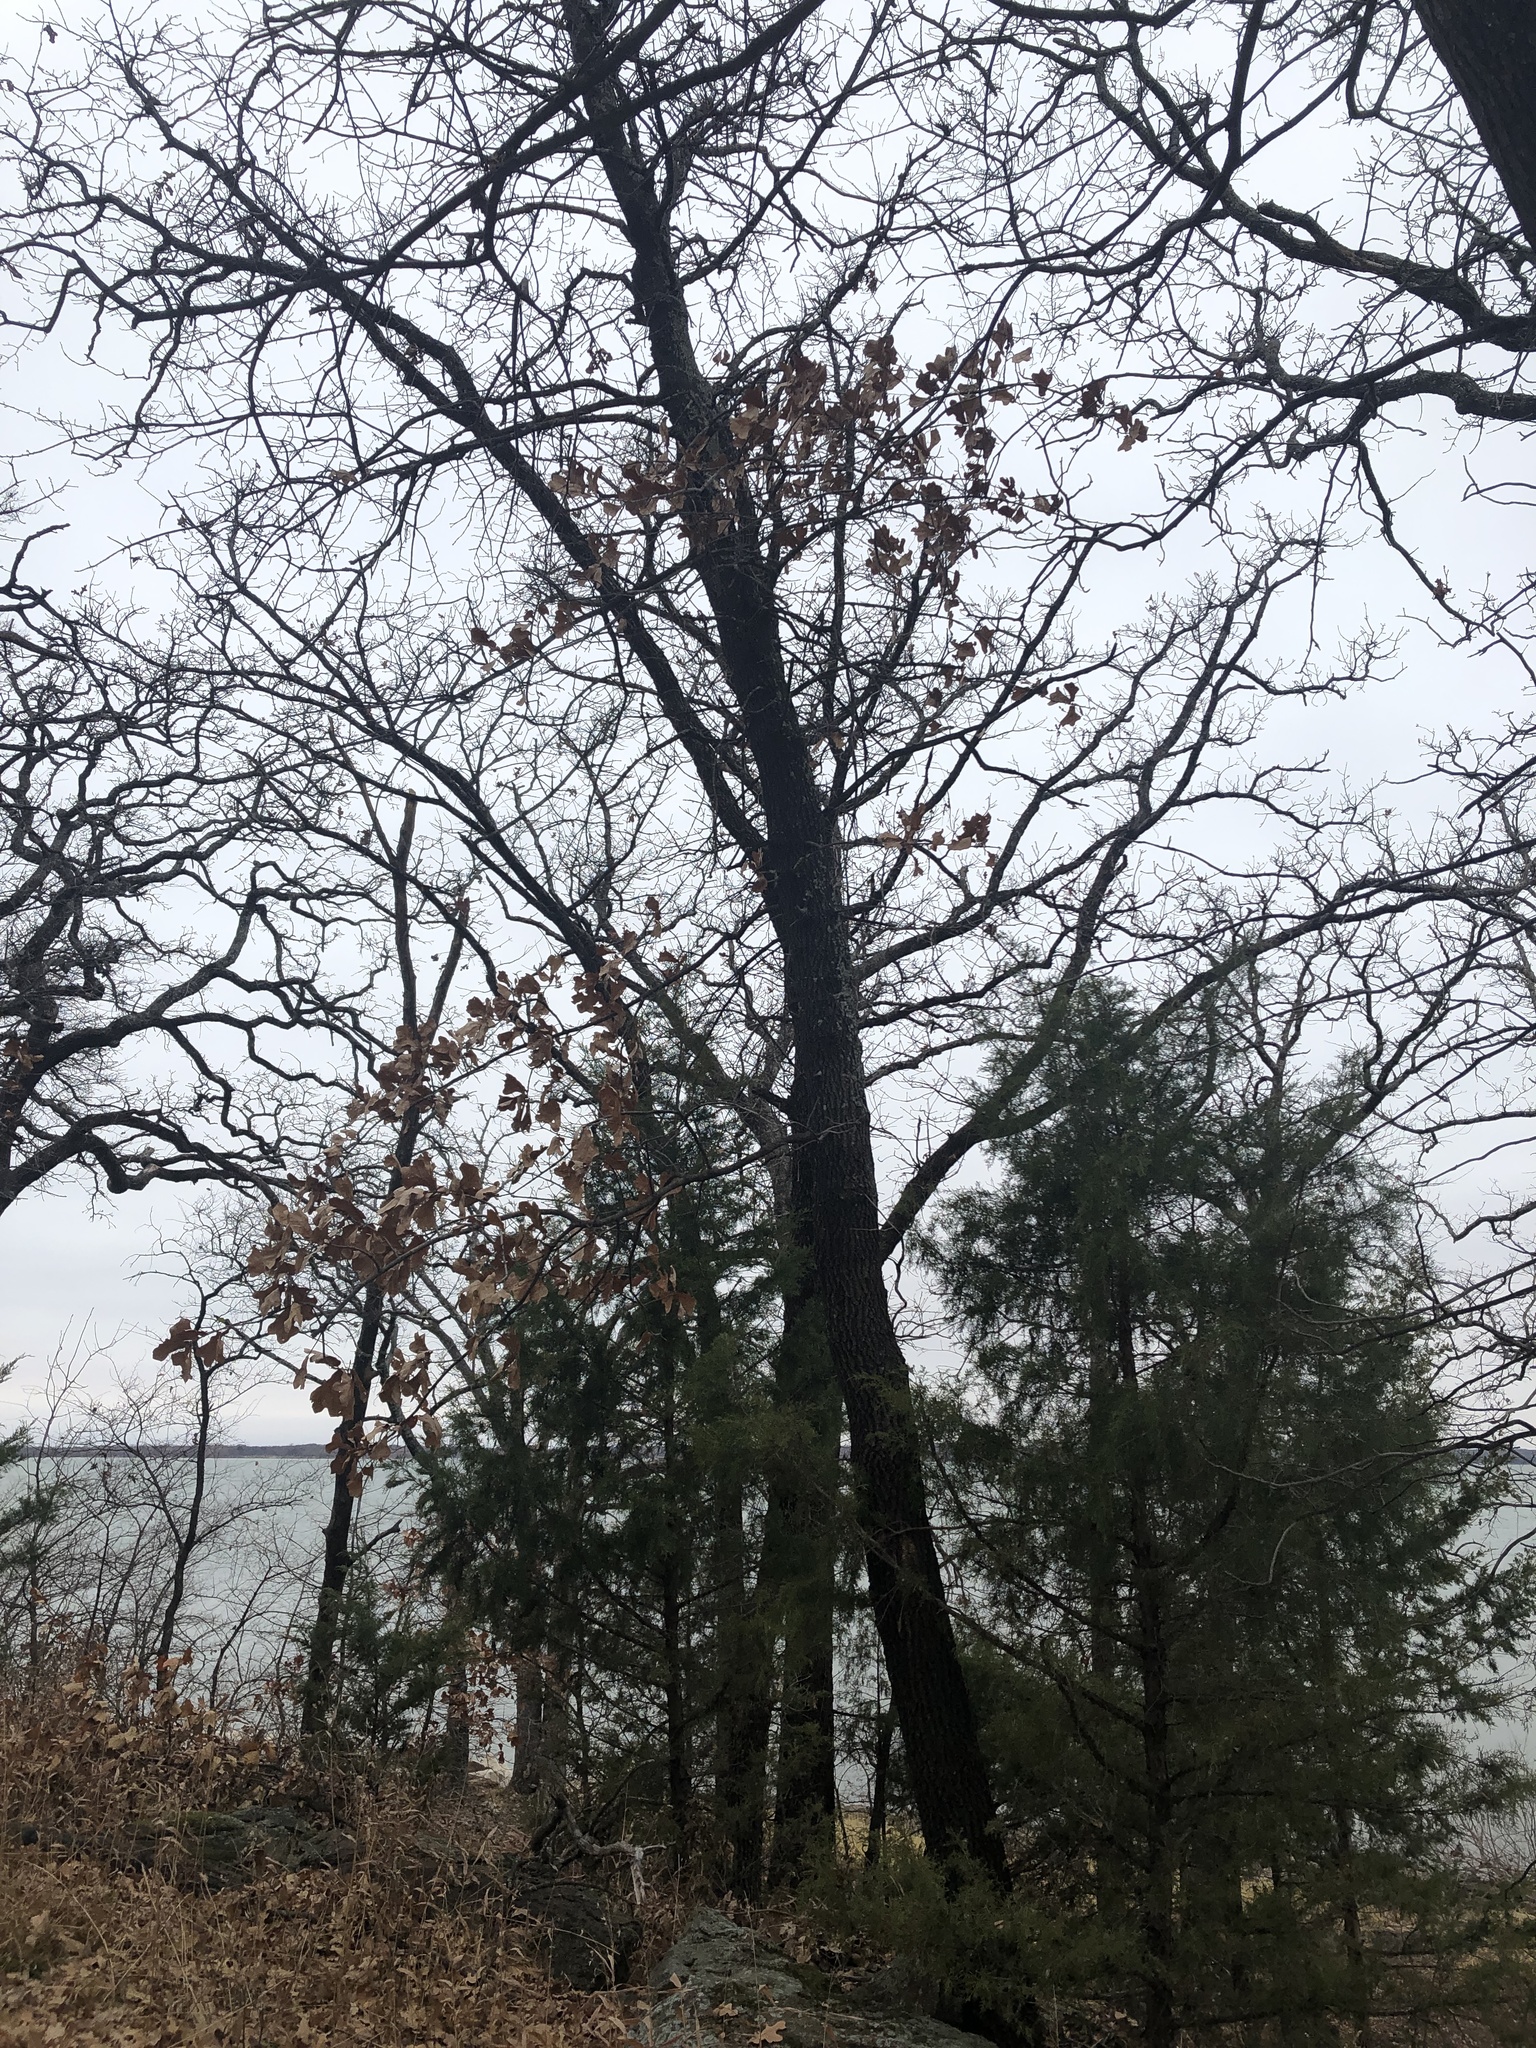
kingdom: Plantae
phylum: Tracheophyta
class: Magnoliopsida
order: Fagales
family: Fagaceae
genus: Quercus
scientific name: Quercus marilandica
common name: Blackjack oak
